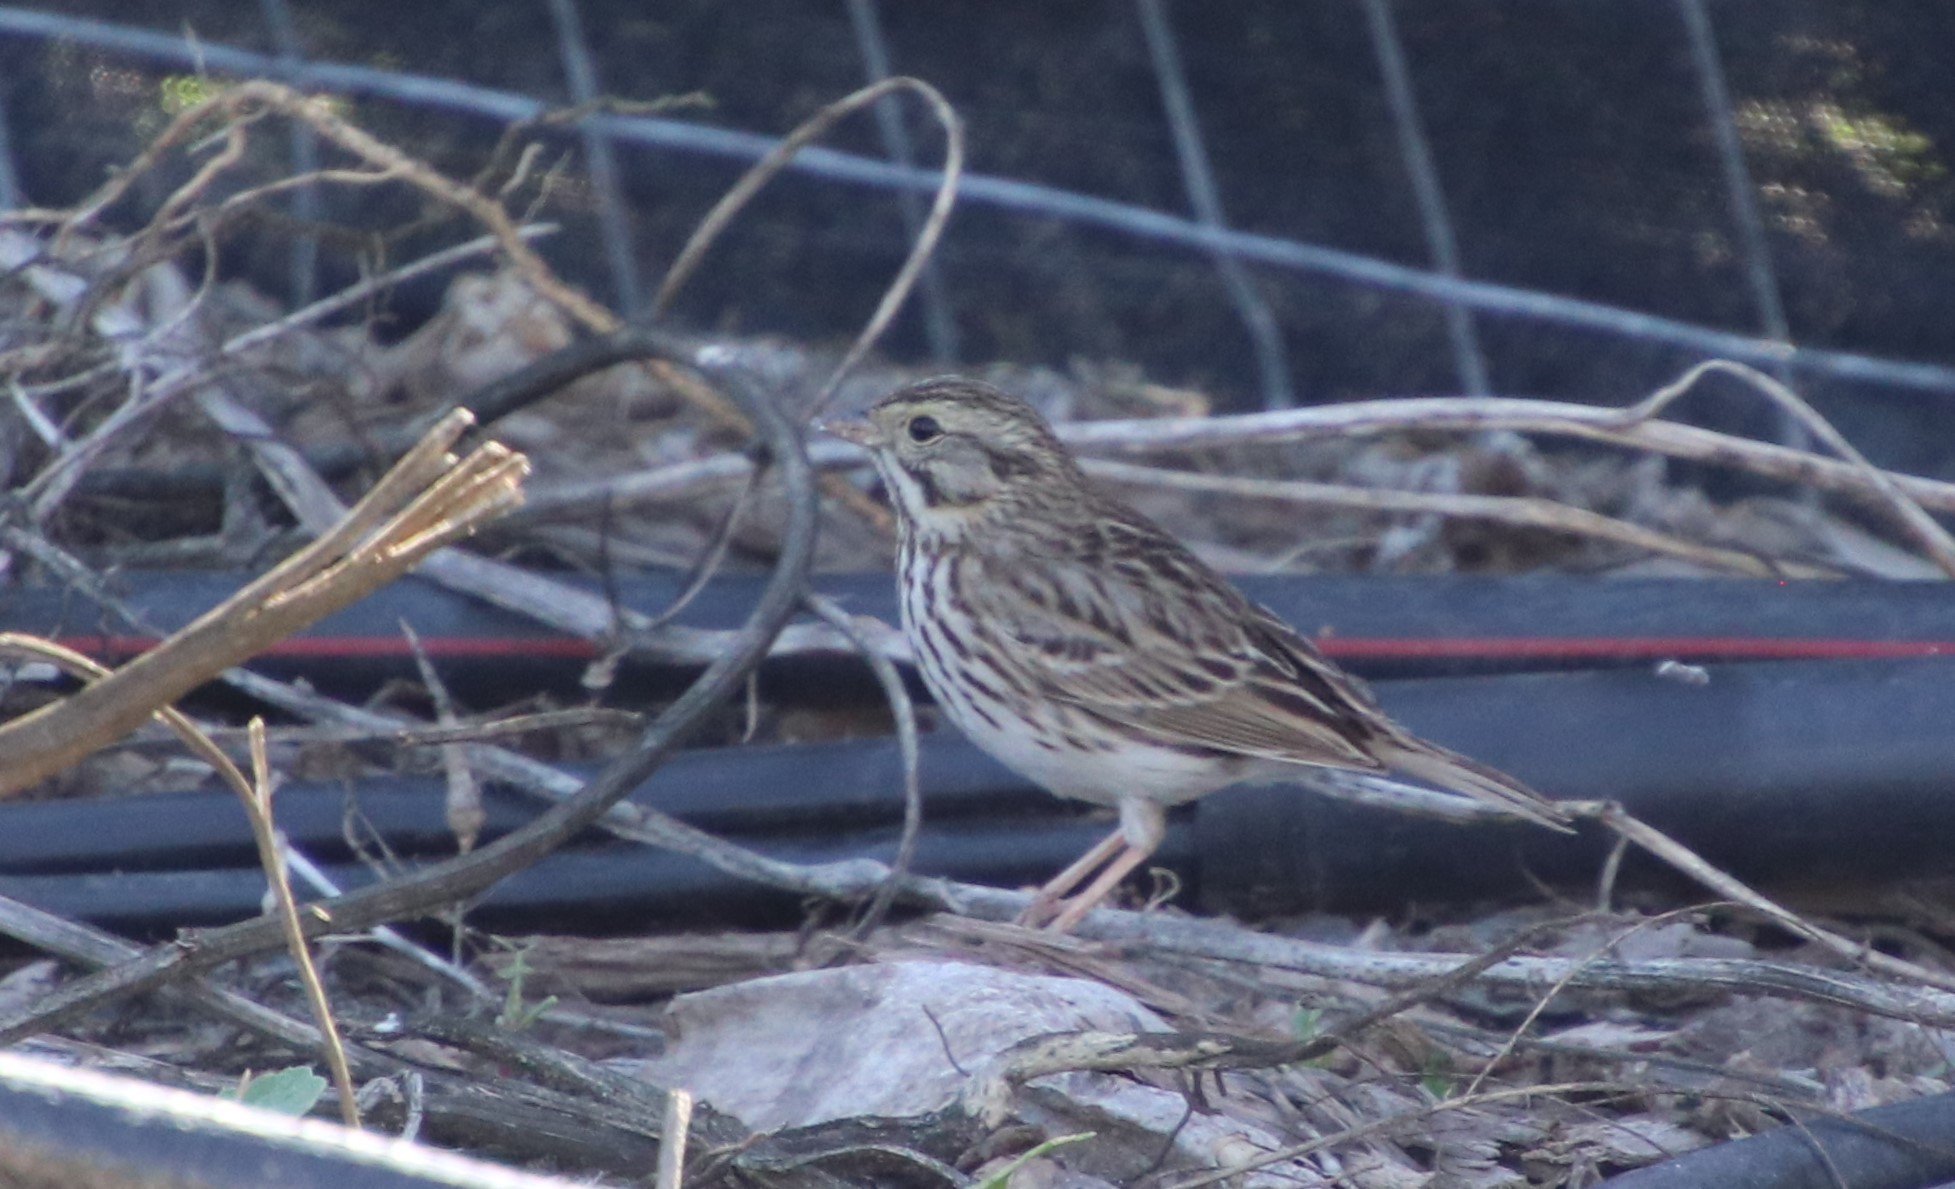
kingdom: Animalia
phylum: Chordata
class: Aves
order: Passeriformes
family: Passerellidae
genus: Passerculus
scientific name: Passerculus sandwichensis
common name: Savannah sparrow
